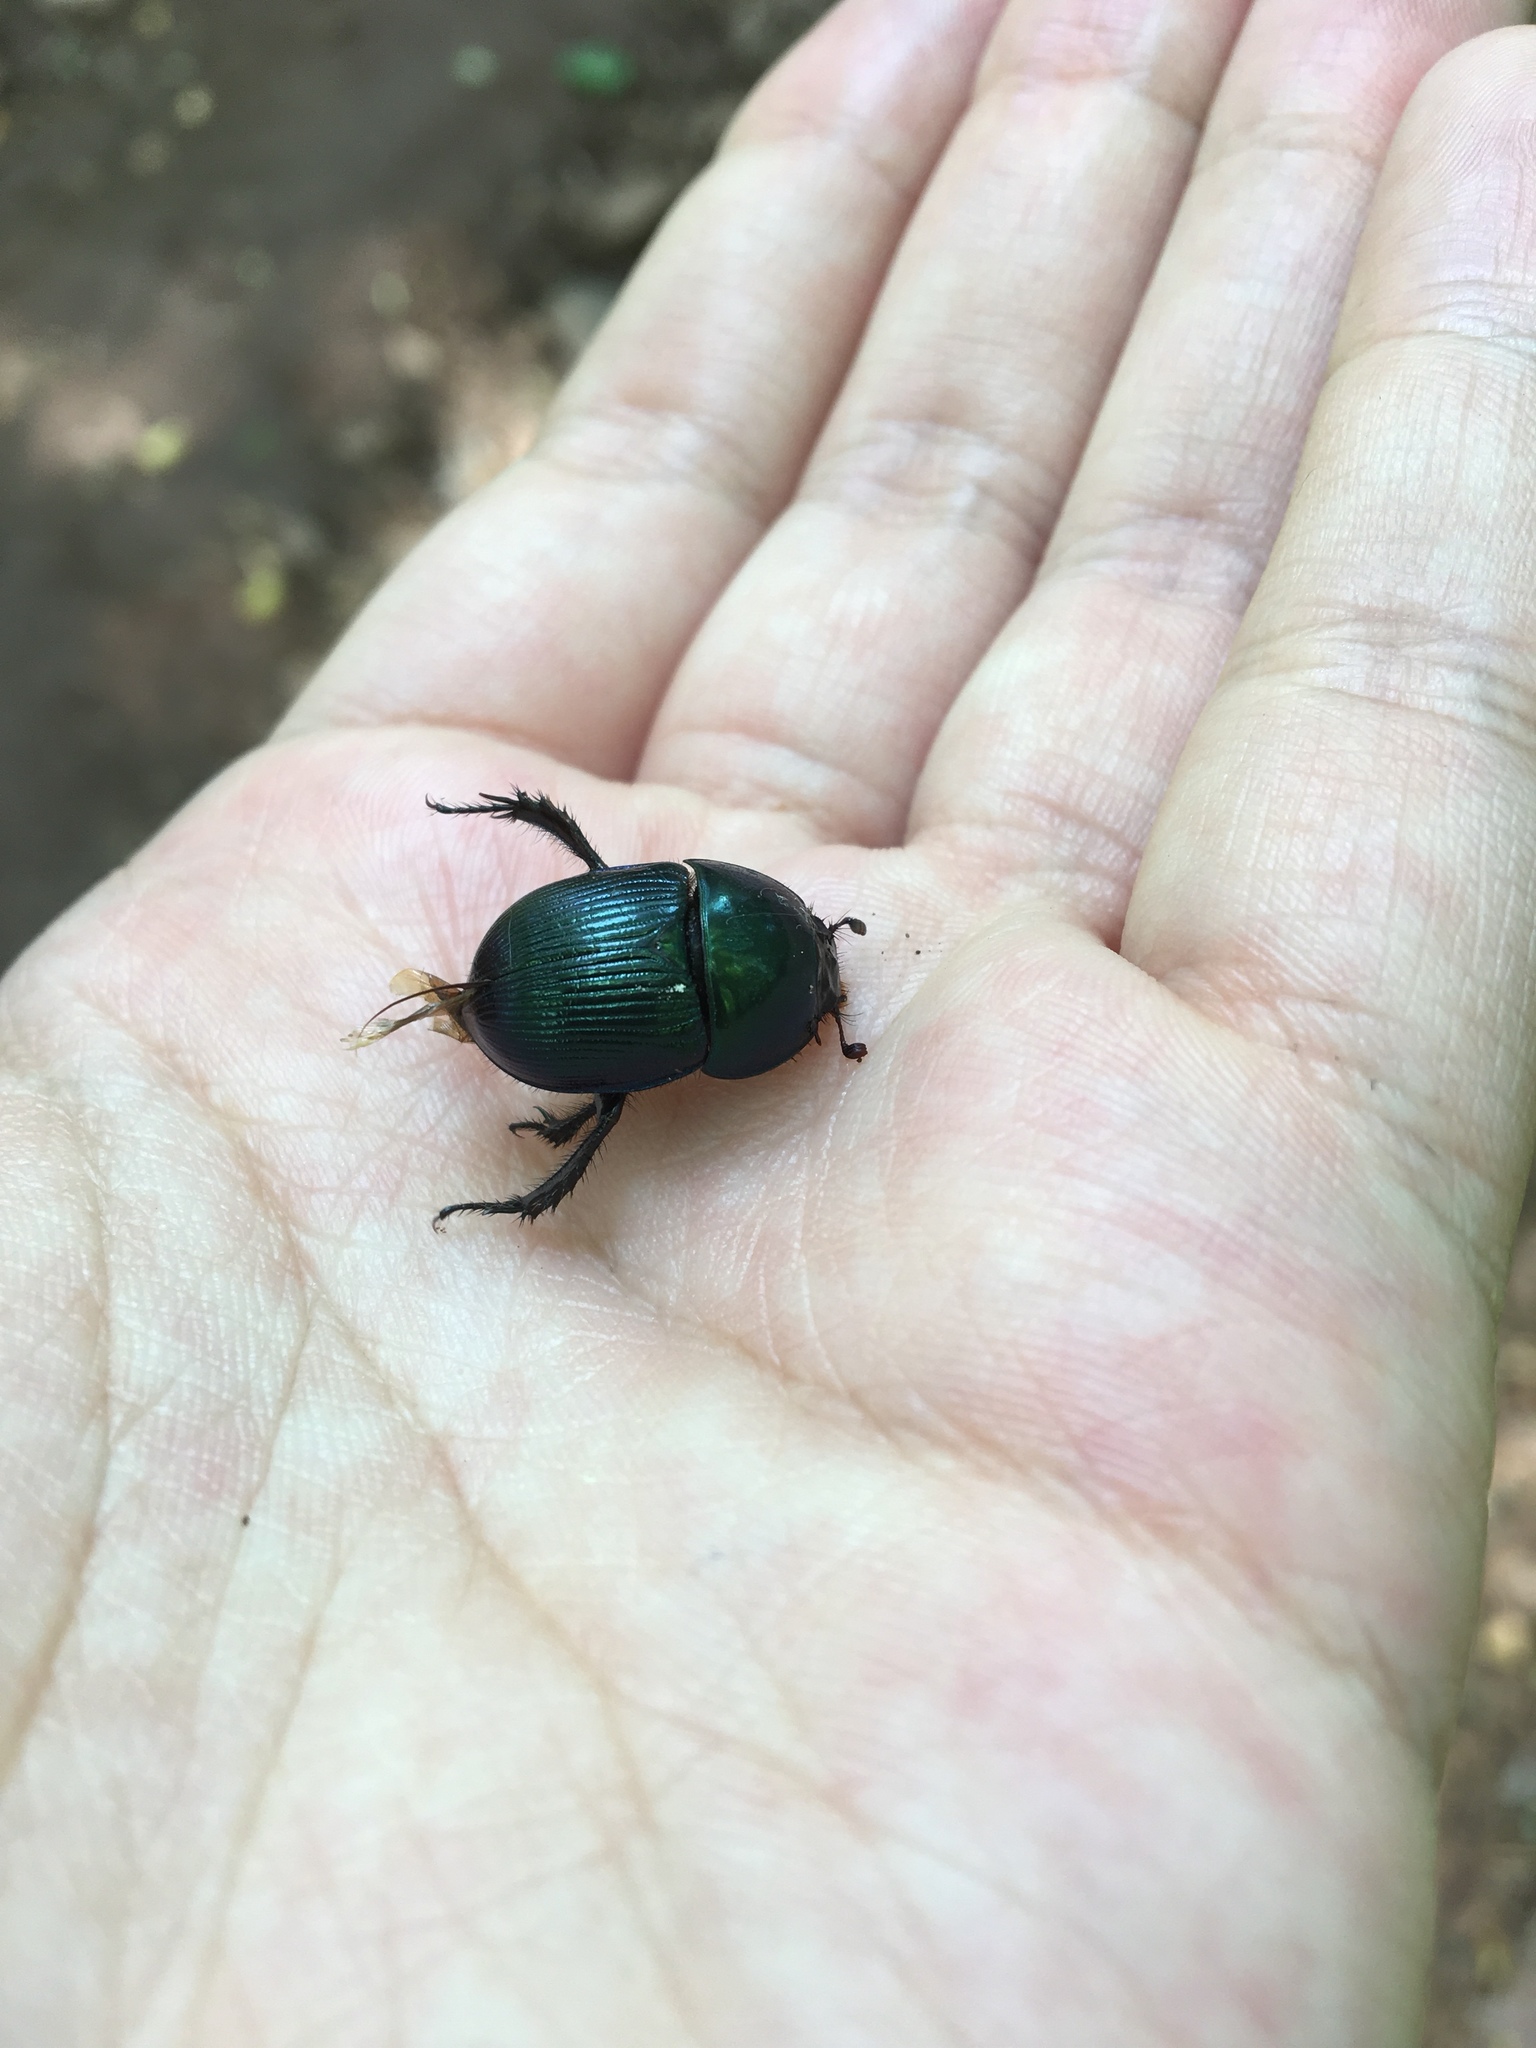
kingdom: Animalia
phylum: Arthropoda
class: Insecta
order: Coleoptera
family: Geotrupidae
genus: Geotrupes
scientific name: Geotrupes splendidus
